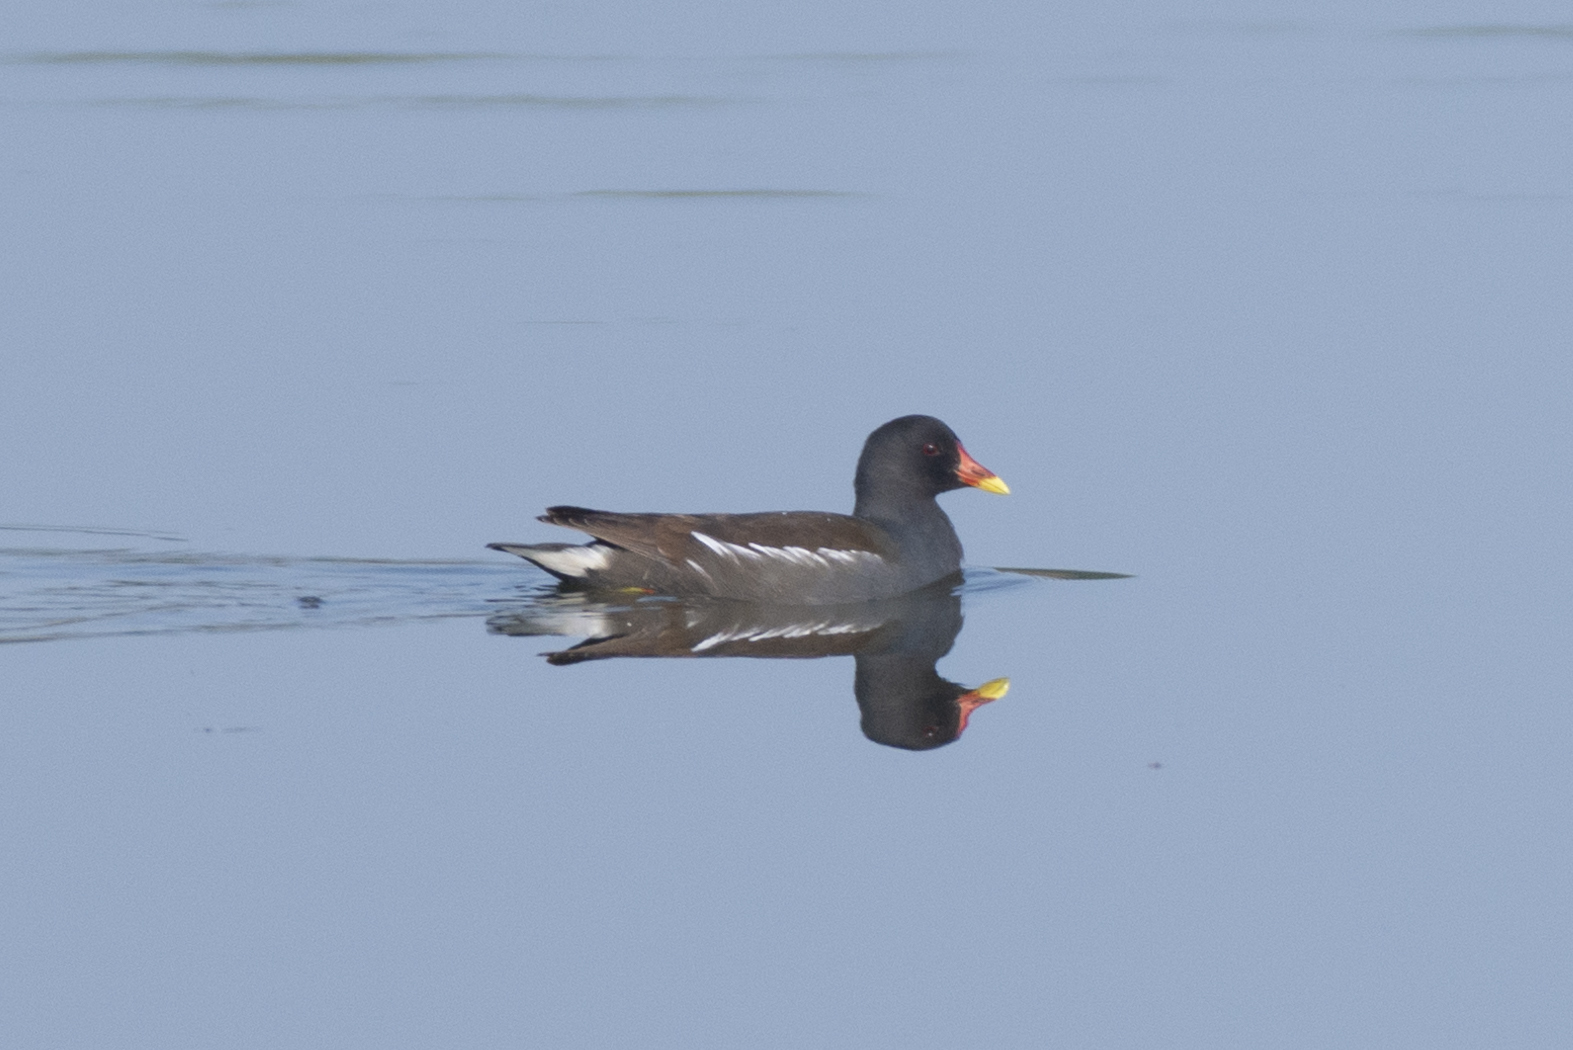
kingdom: Animalia
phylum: Chordata
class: Aves
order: Gruiformes
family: Rallidae
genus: Gallinula
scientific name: Gallinula chloropus
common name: Common moorhen
